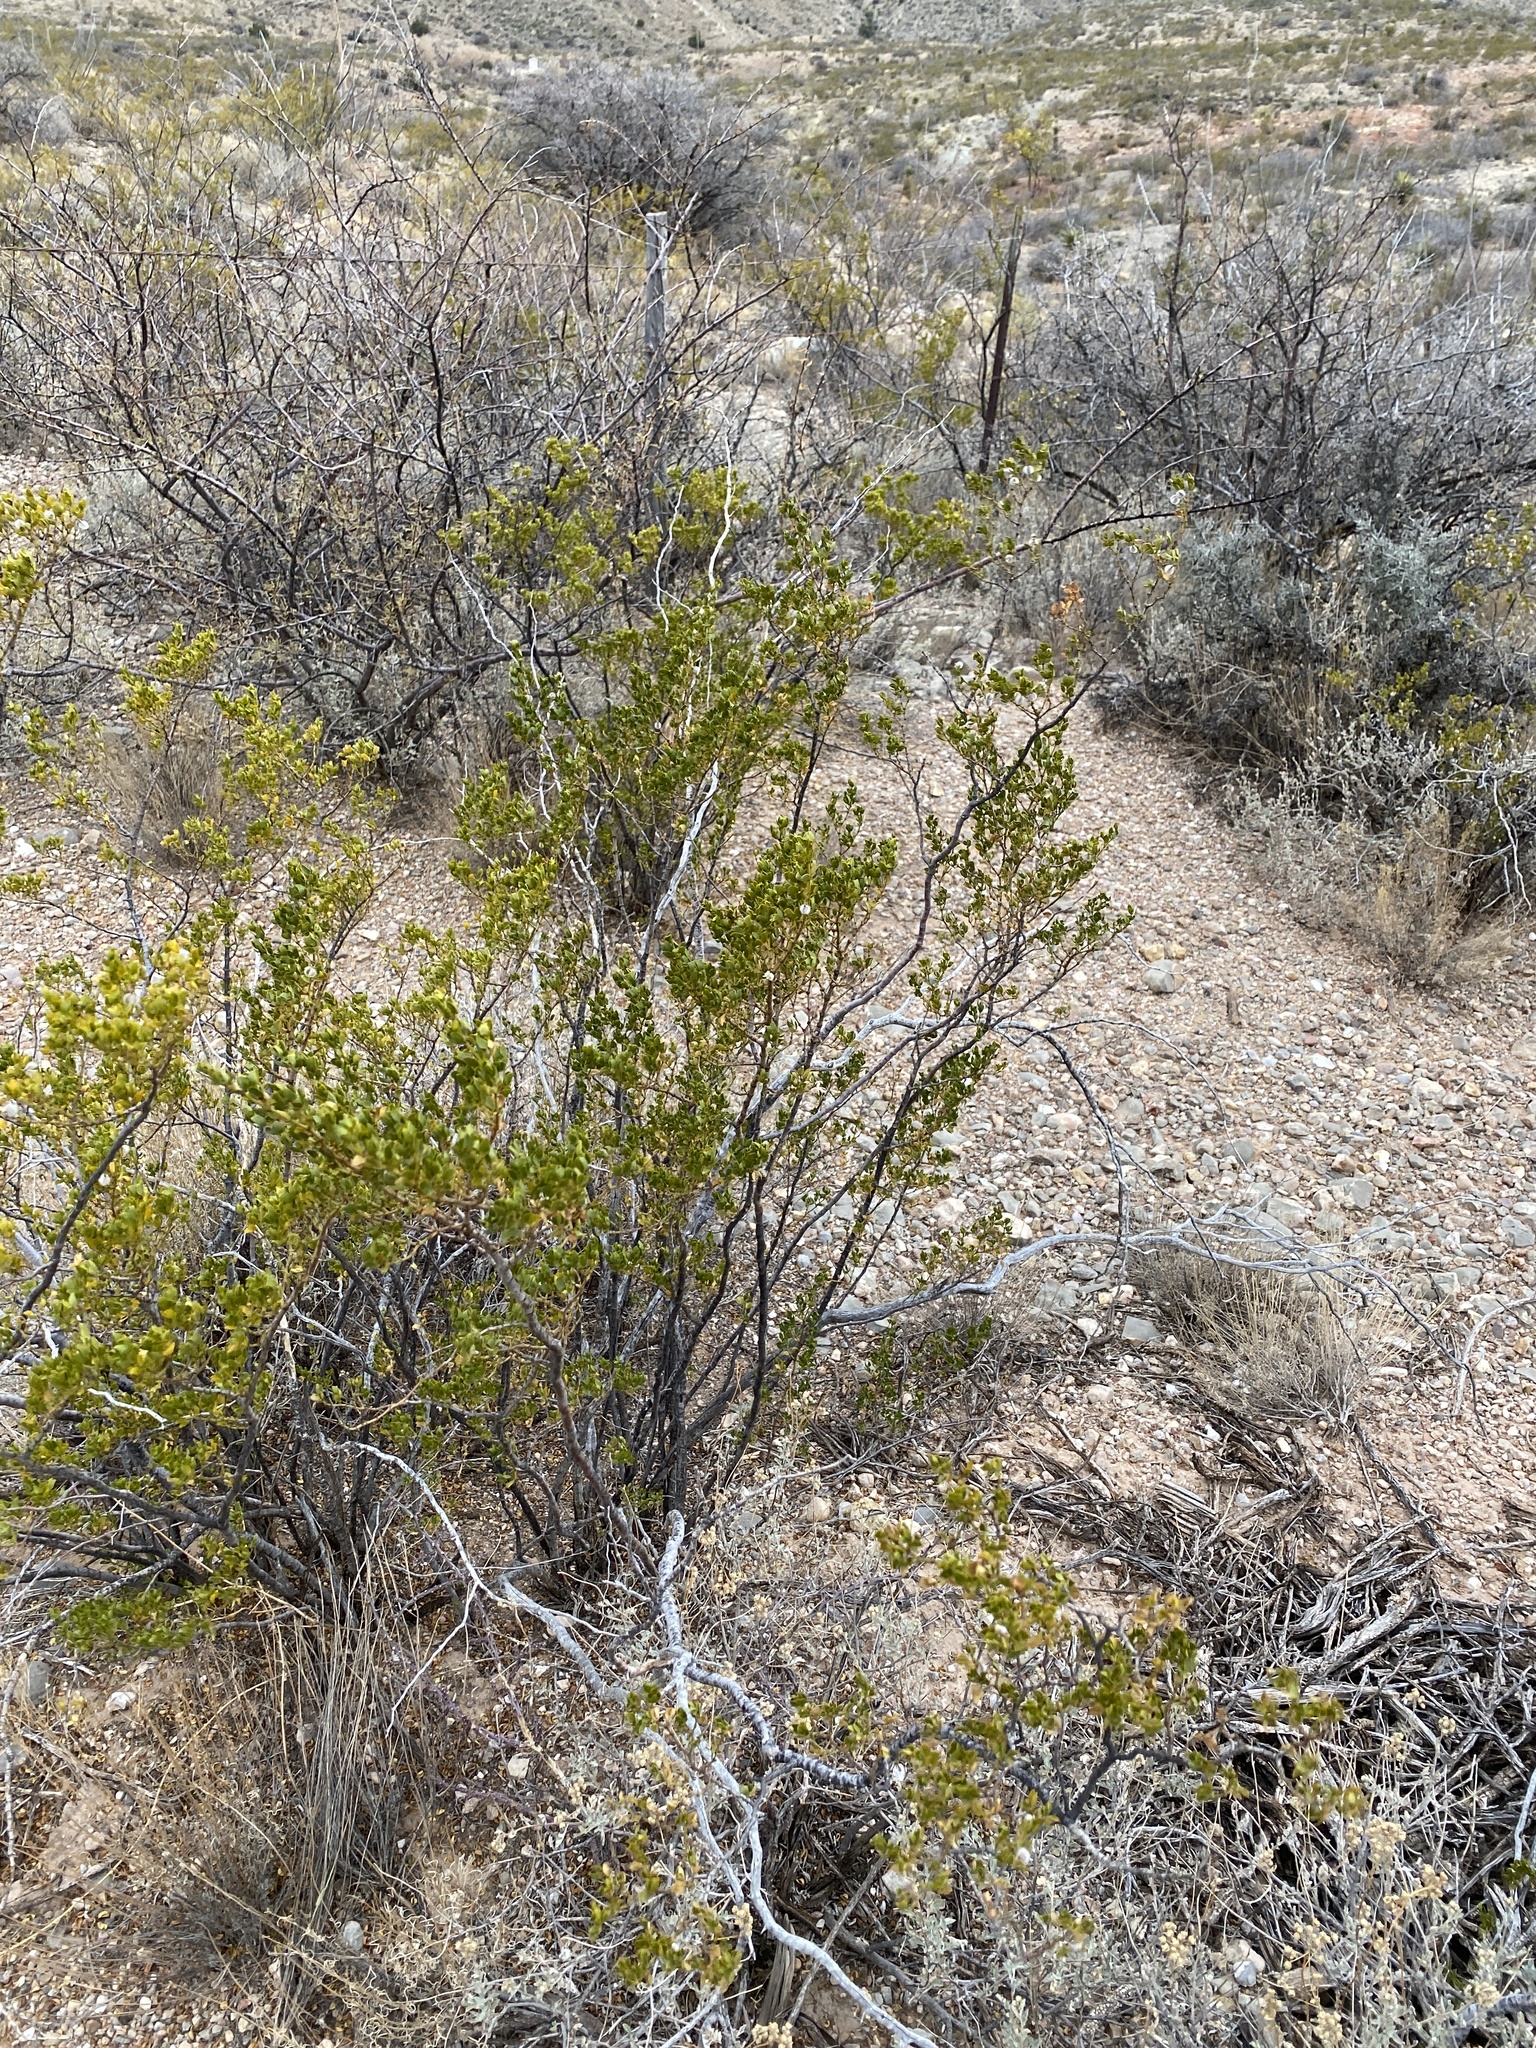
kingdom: Plantae
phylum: Tracheophyta
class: Magnoliopsida
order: Zygophyllales
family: Zygophyllaceae
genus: Larrea
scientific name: Larrea tridentata
